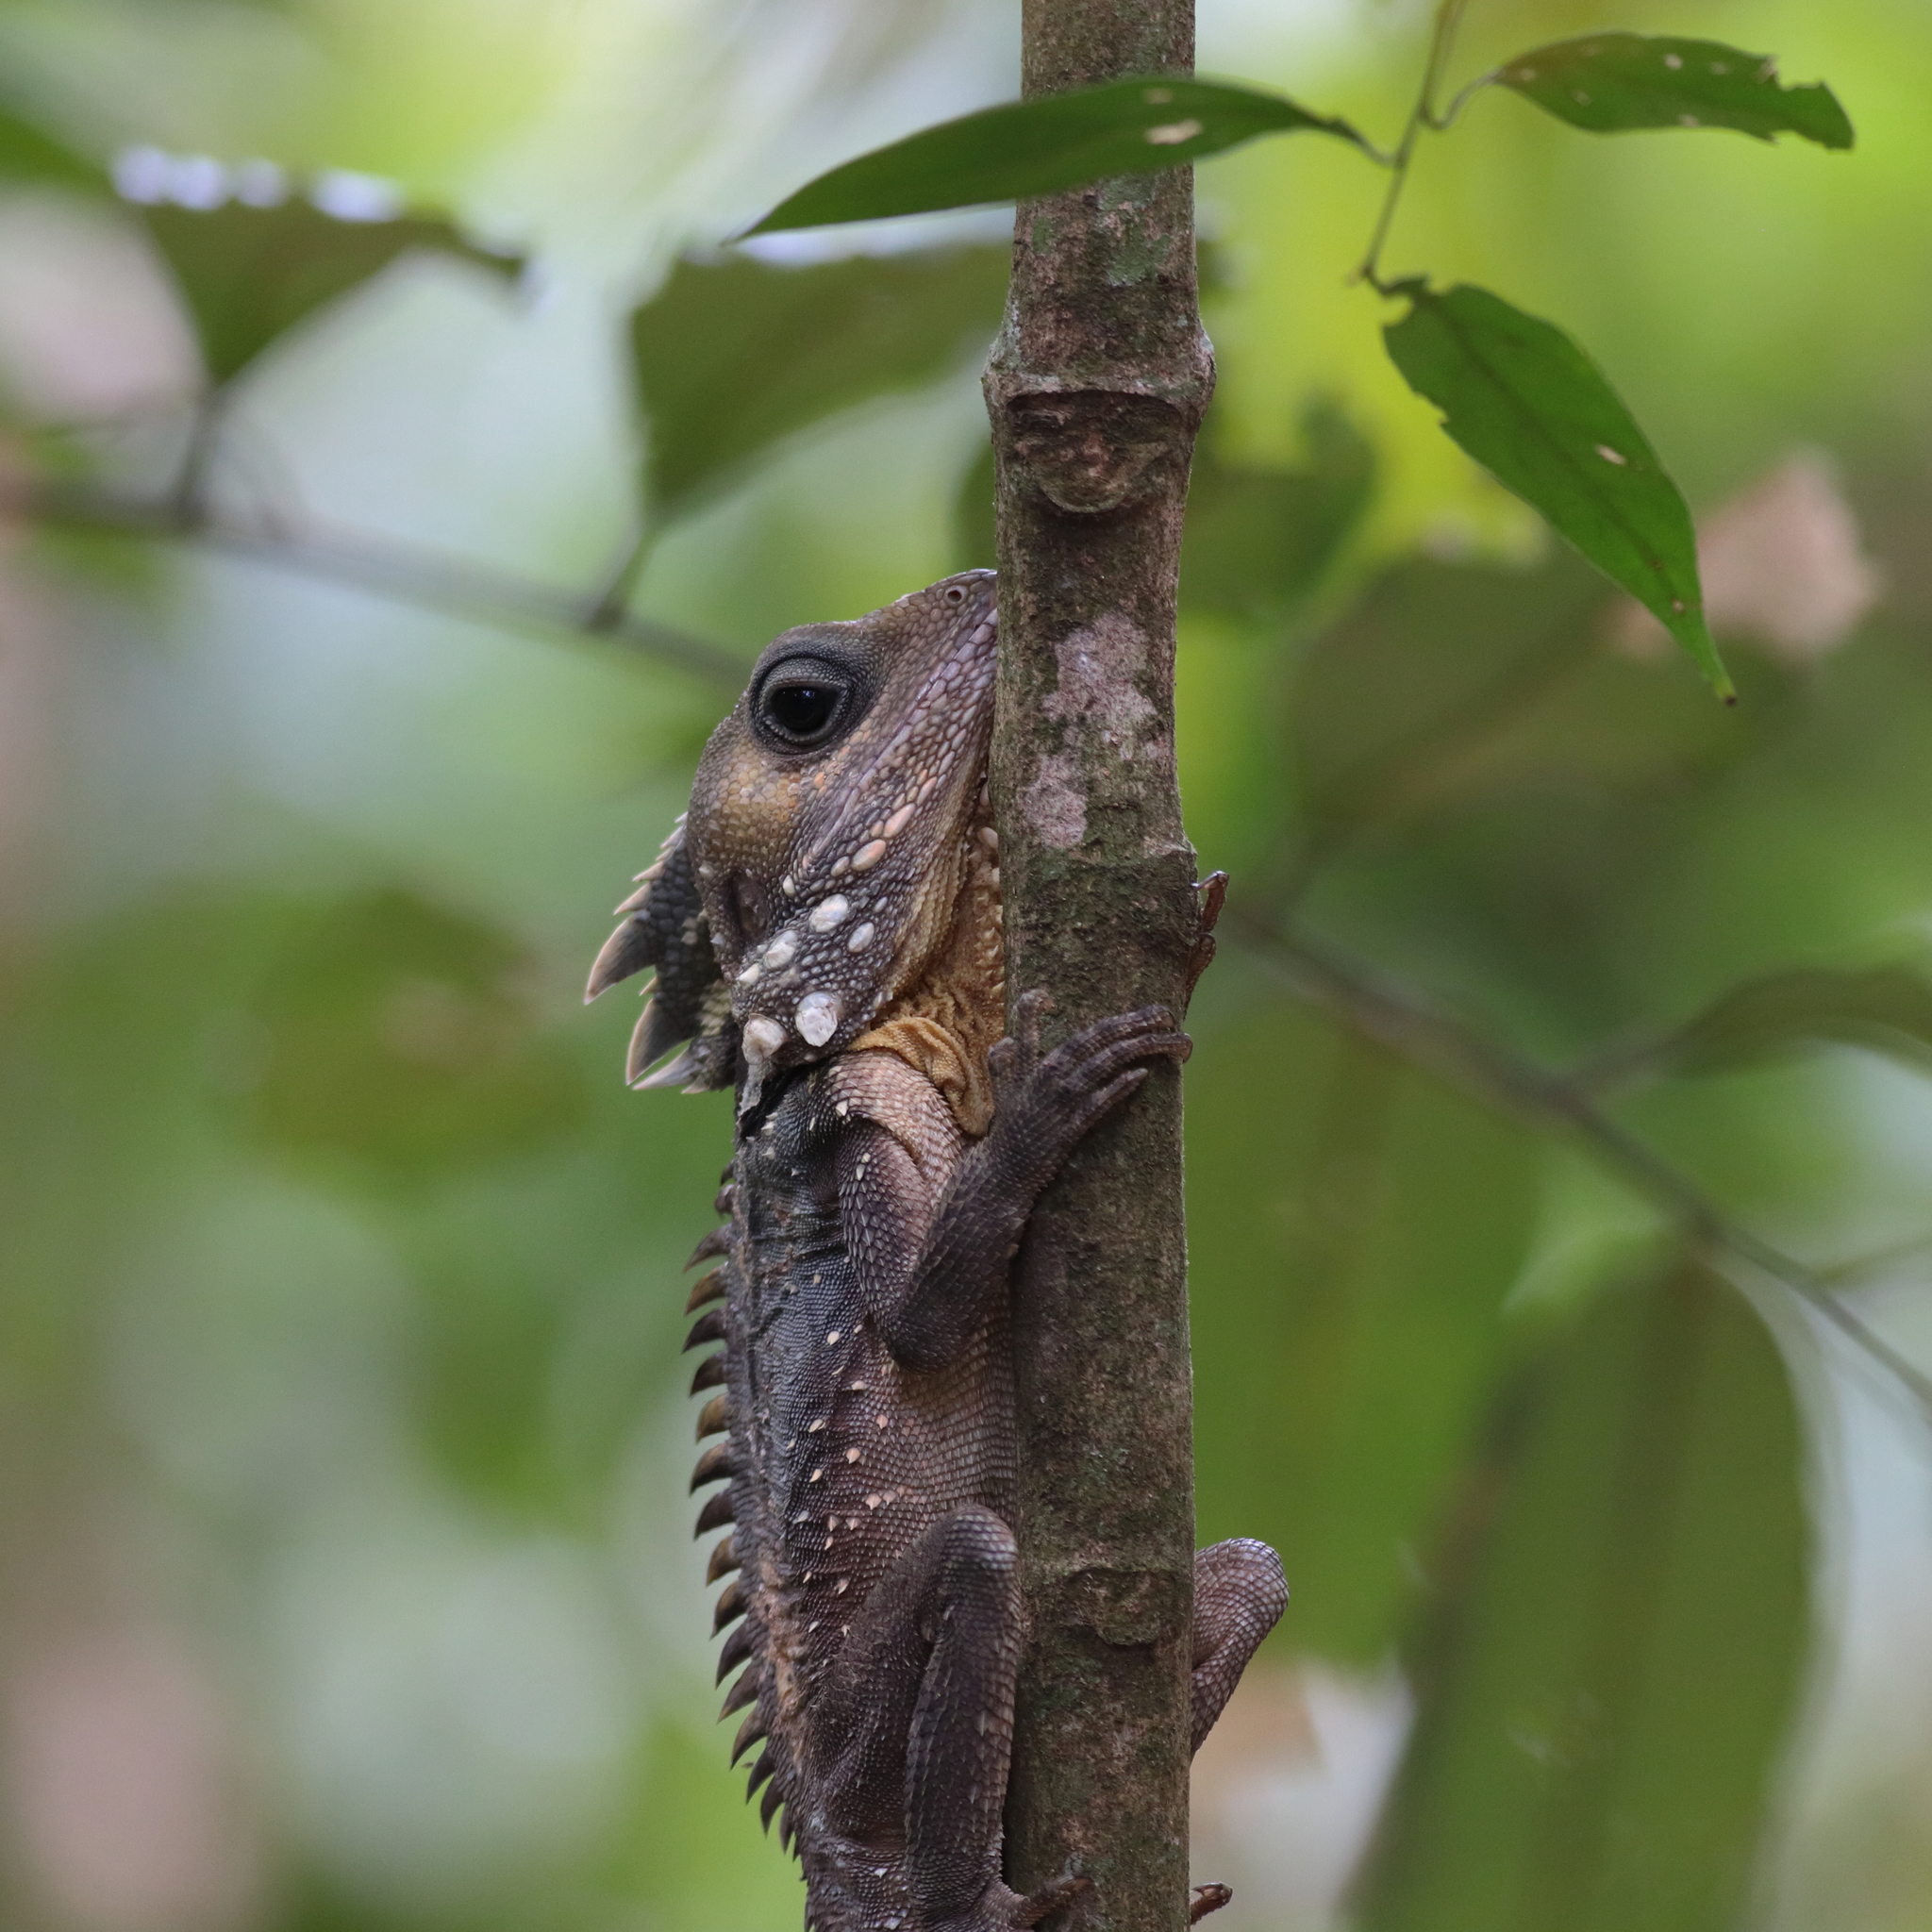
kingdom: Animalia
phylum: Chordata
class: Squamata
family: Agamidae
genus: Lophosaurus
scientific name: Lophosaurus boydii
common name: Boyd's forest dragon
